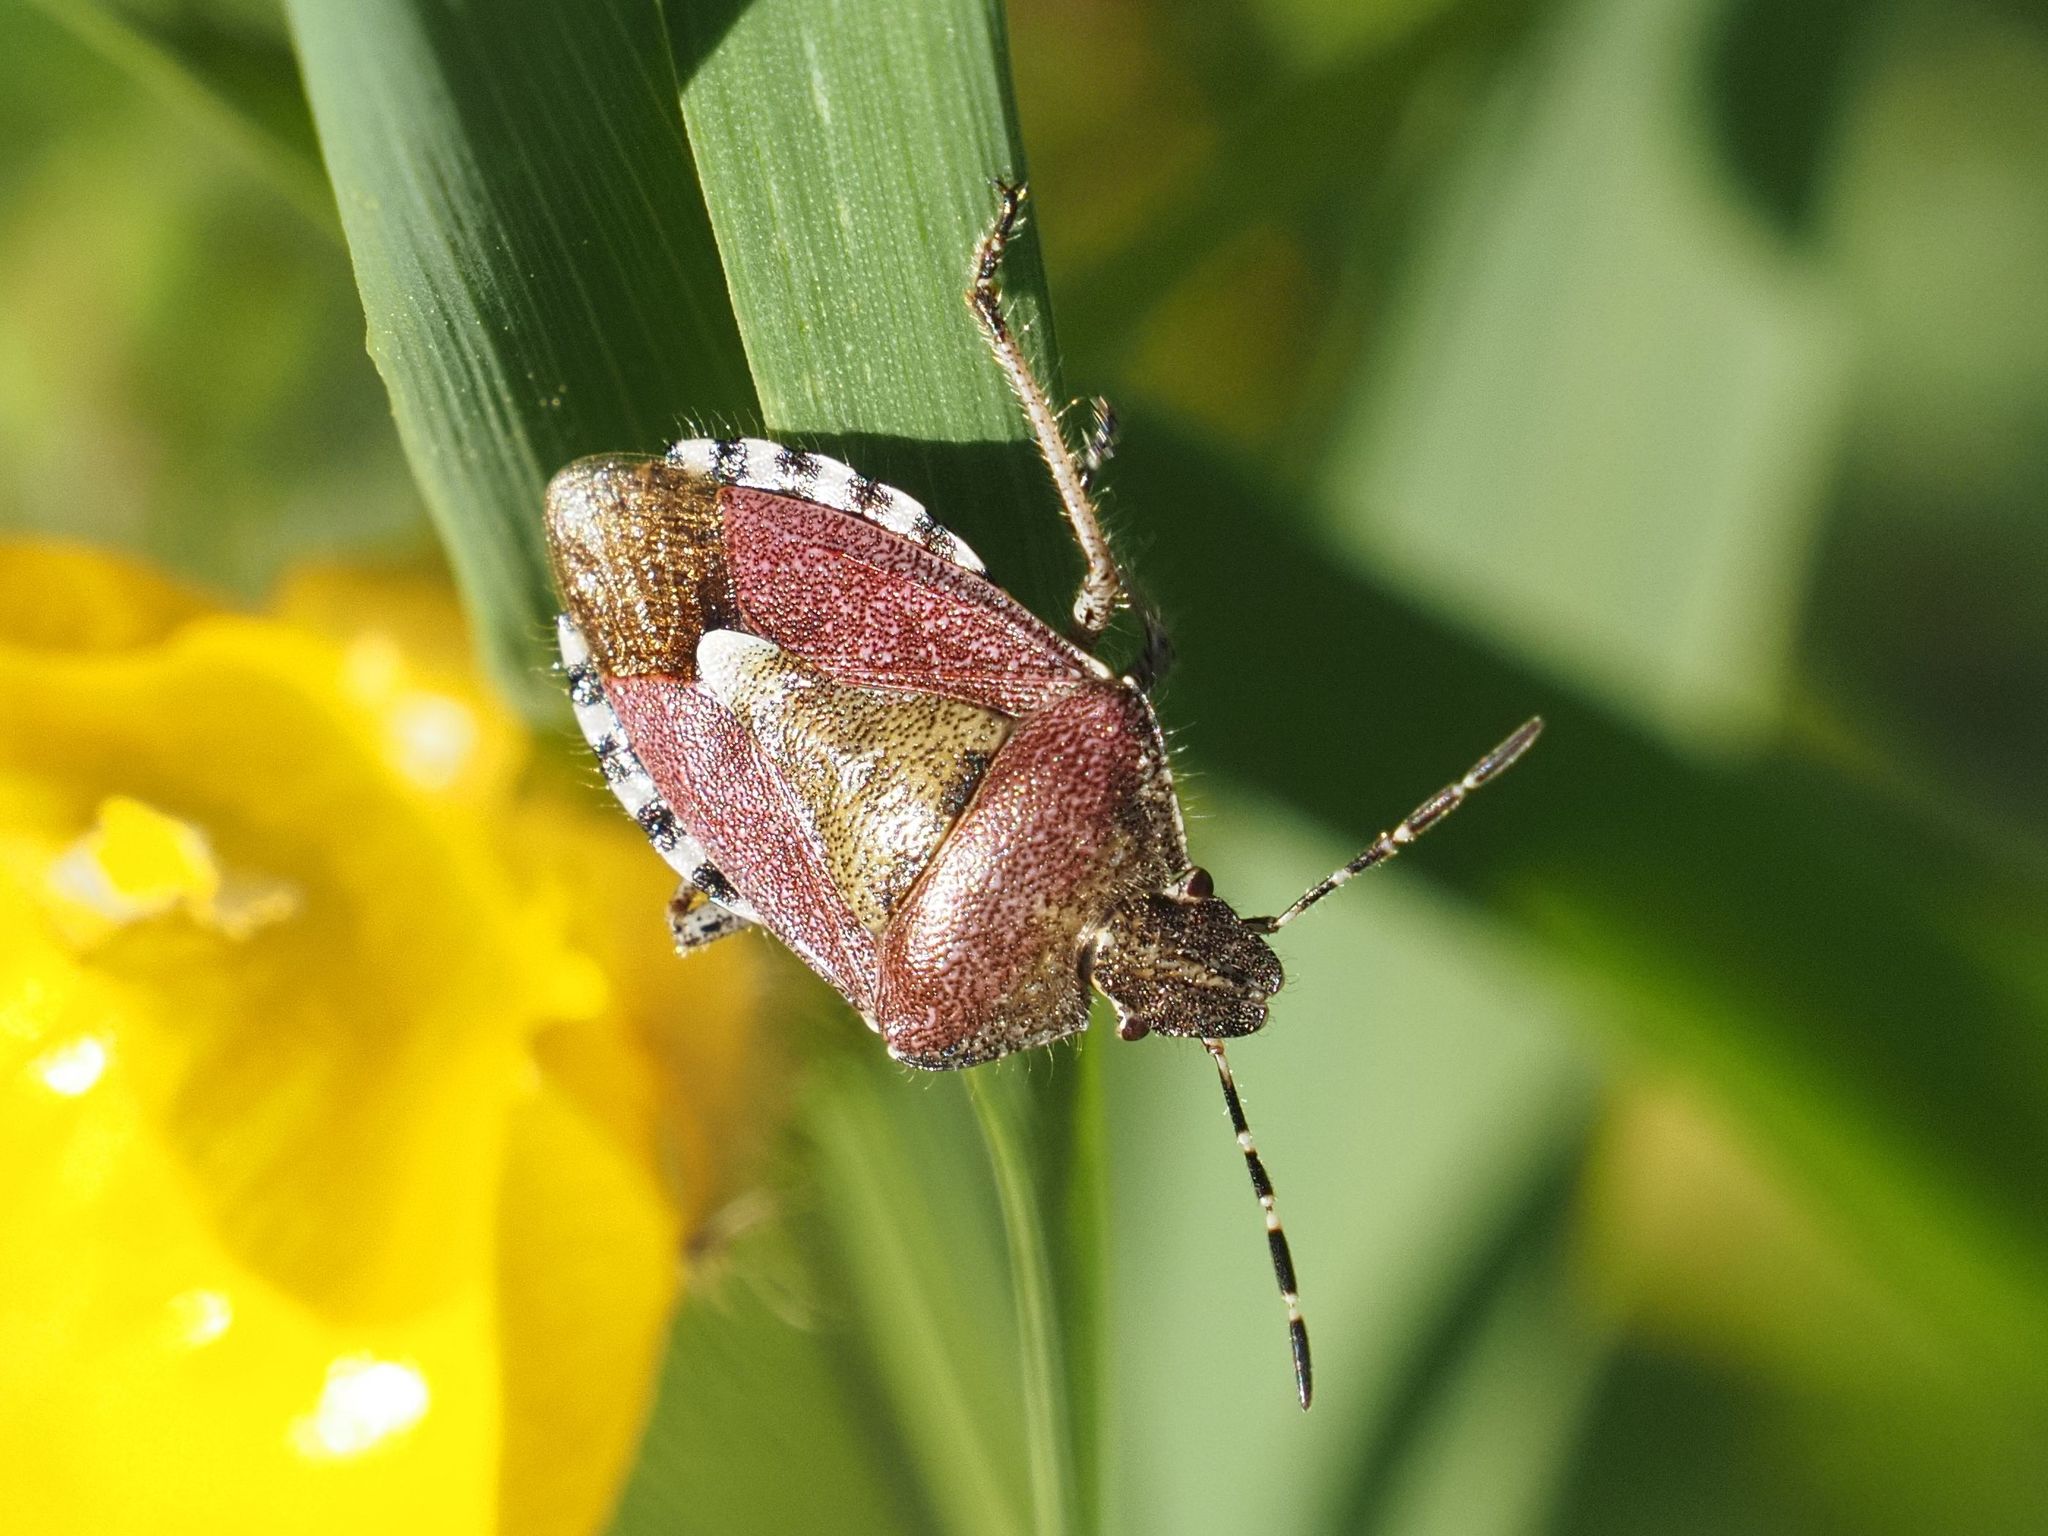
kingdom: Animalia
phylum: Arthropoda
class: Insecta
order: Hemiptera
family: Pentatomidae
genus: Dolycoris
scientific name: Dolycoris baccarum
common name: Sloe bug
